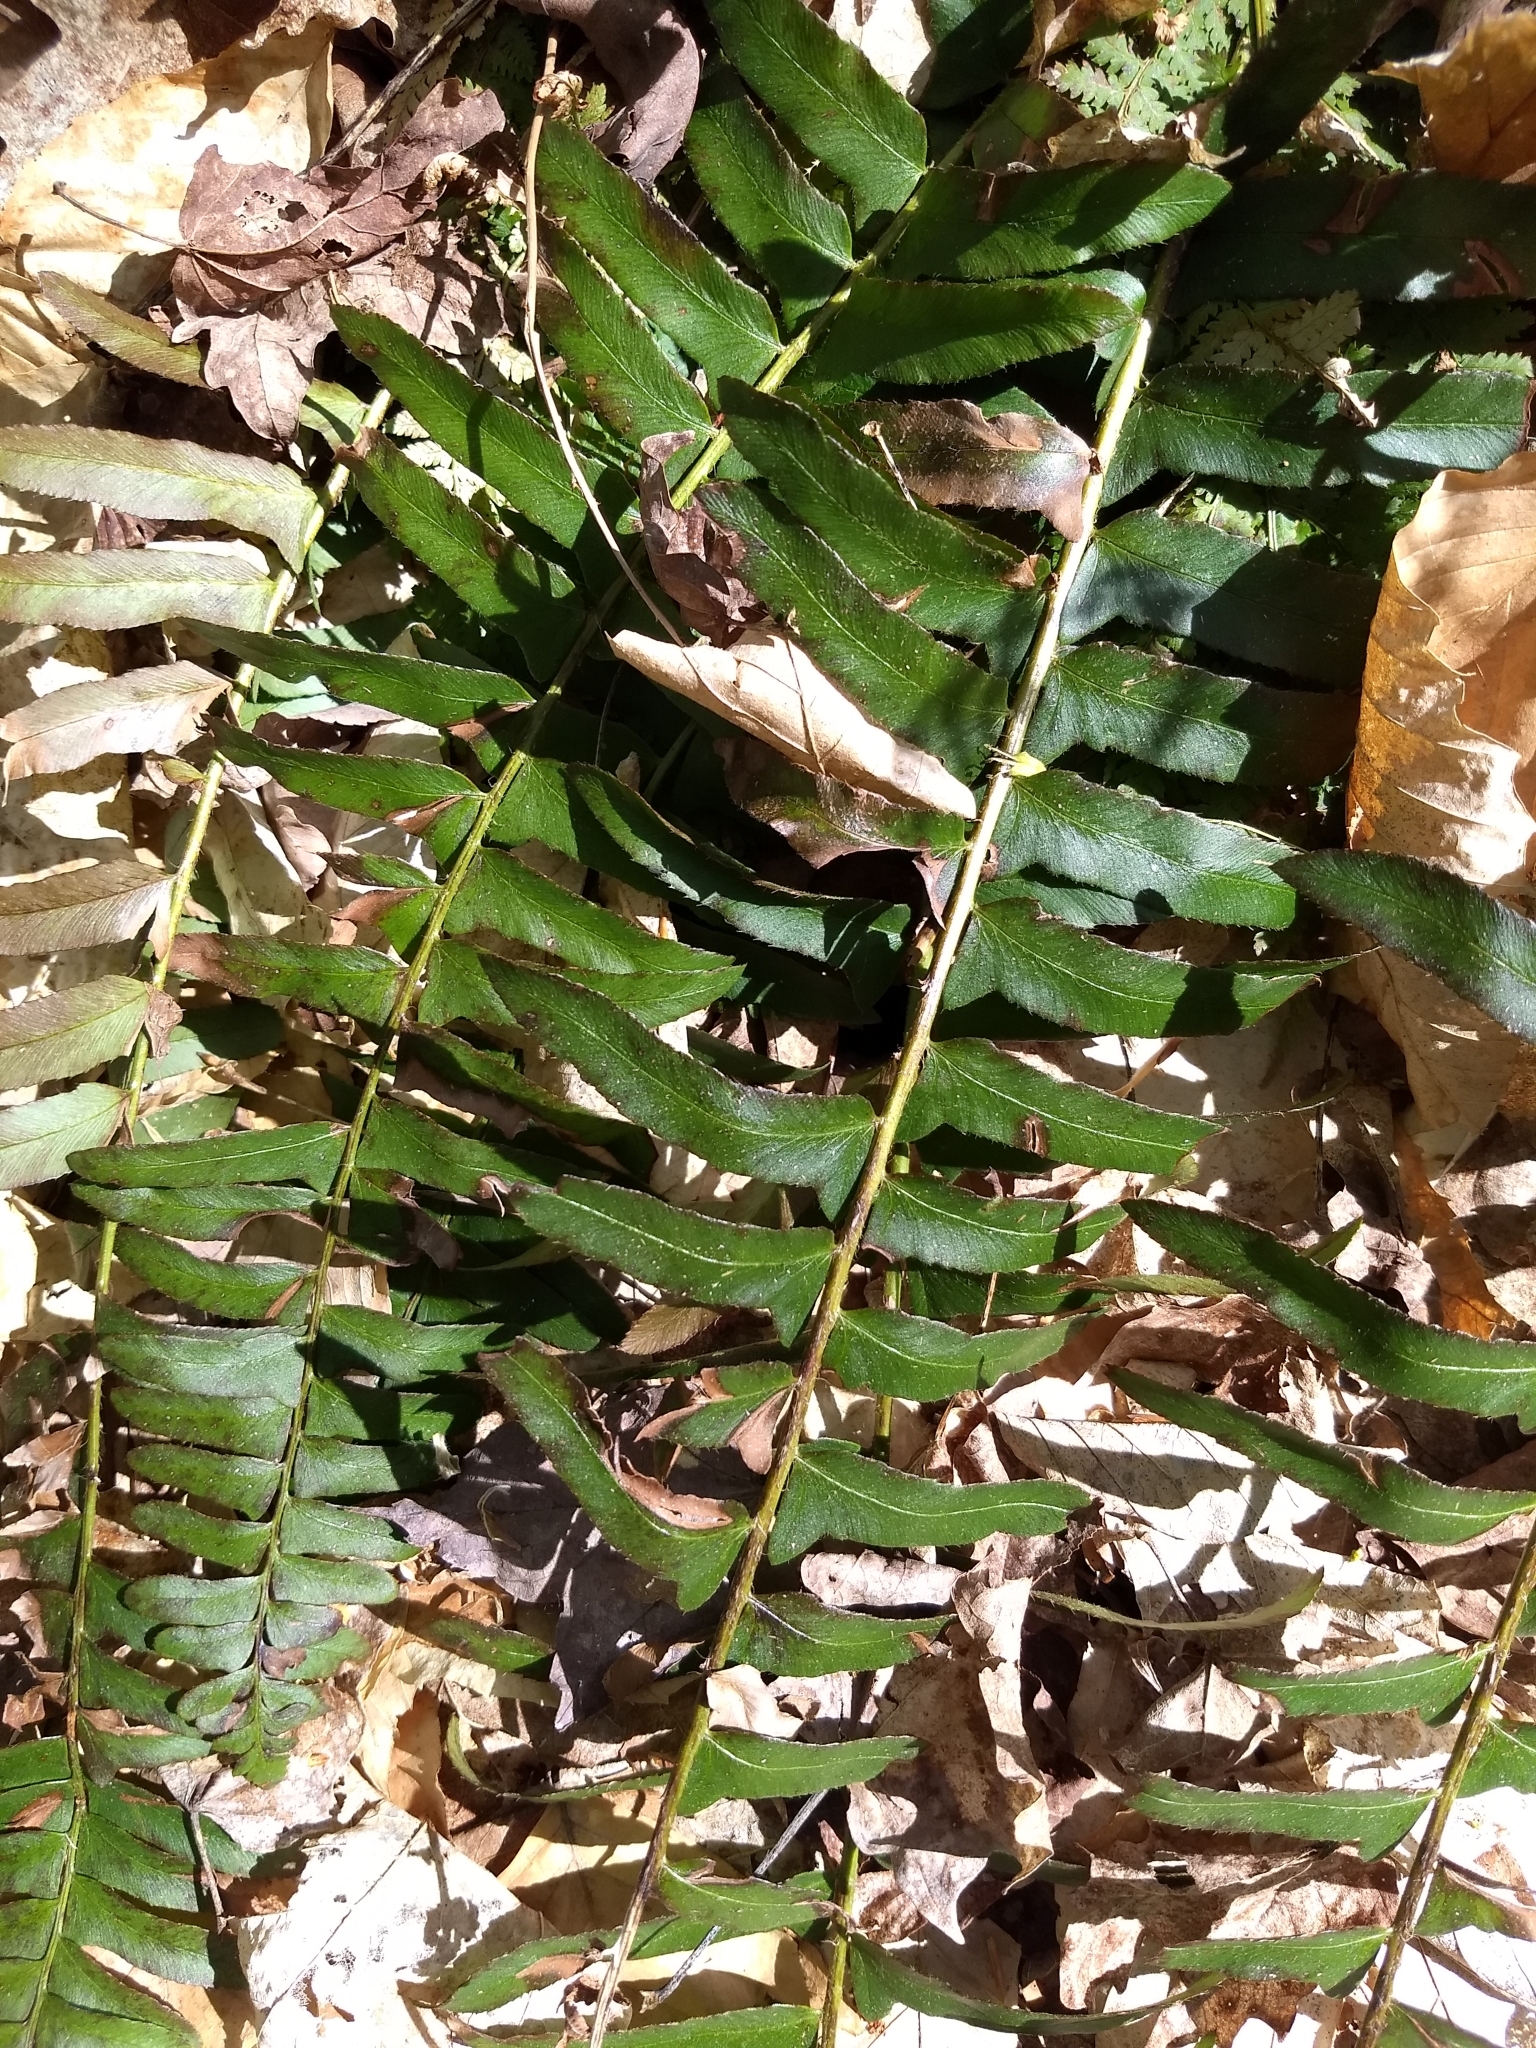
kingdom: Plantae
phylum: Tracheophyta
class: Polypodiopsida
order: Polypodiales
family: Dryopteridaceae
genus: Polystichum
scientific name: Polystichum acrostichoides
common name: Christmas fern
